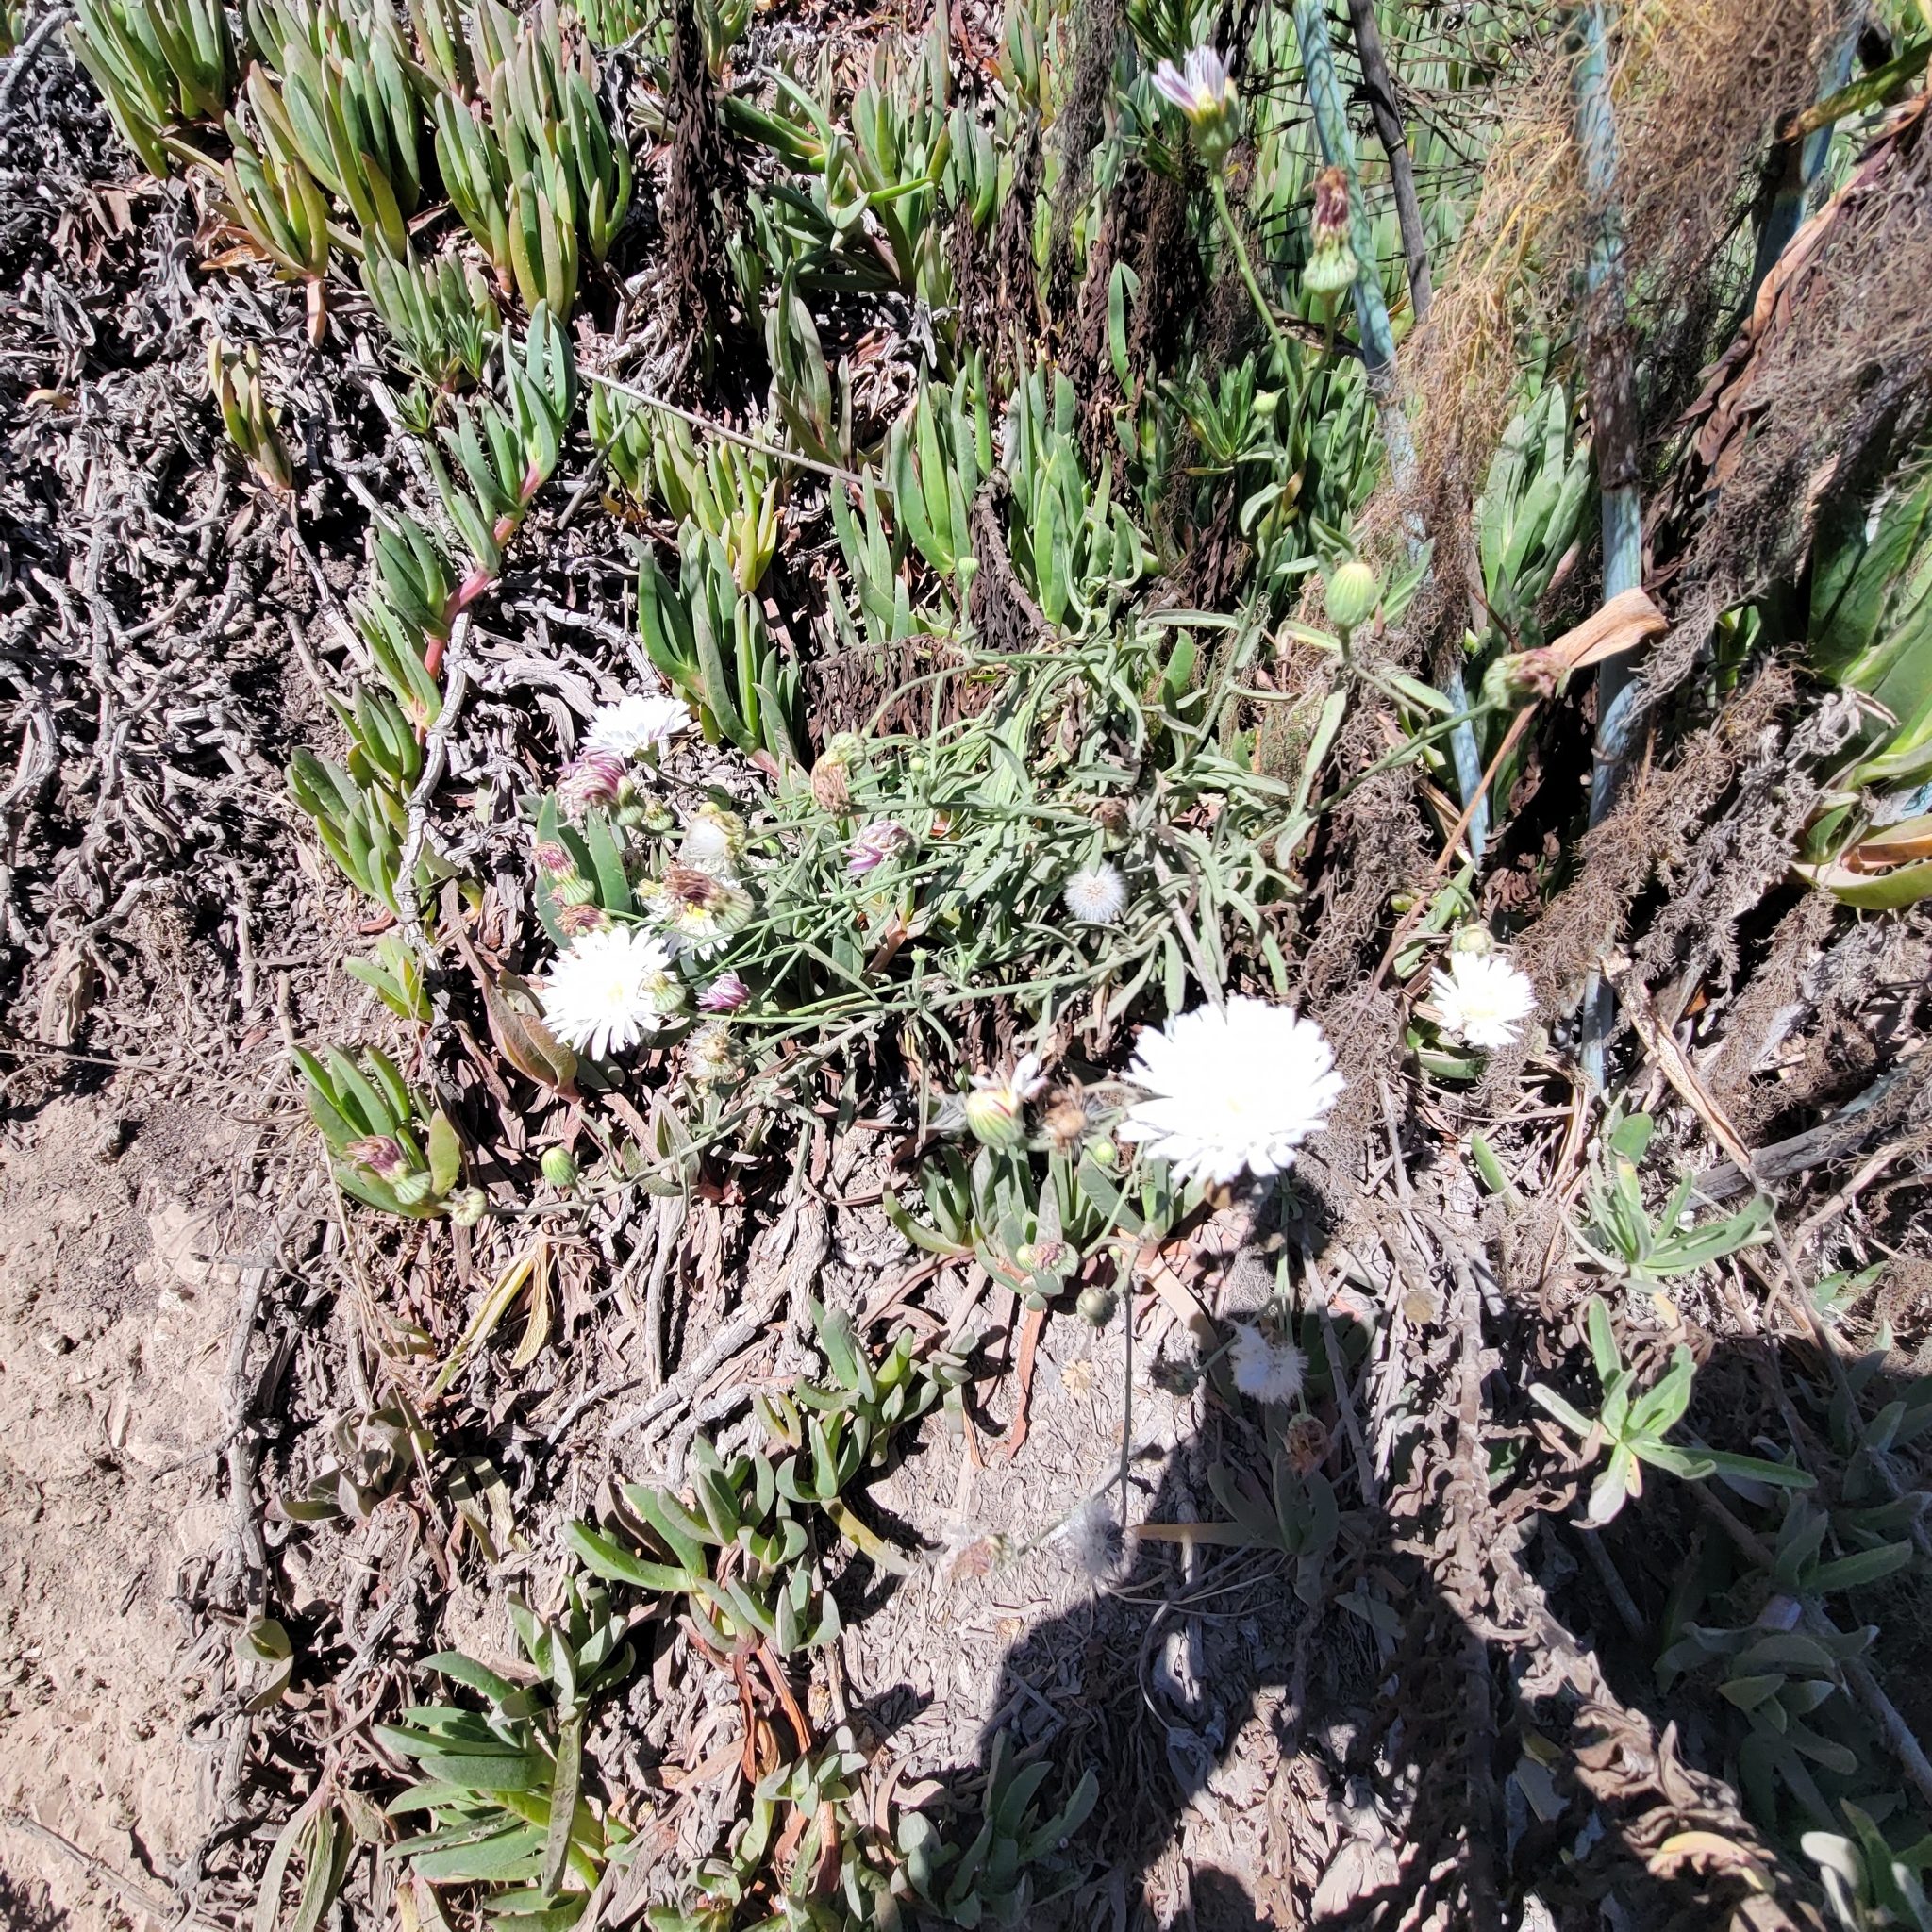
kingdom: Plantae
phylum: Tracheophyta
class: Magnoliopsida
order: Asterales
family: Asteraceae
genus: Malacothrix
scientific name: Malacothrix saxatilis
